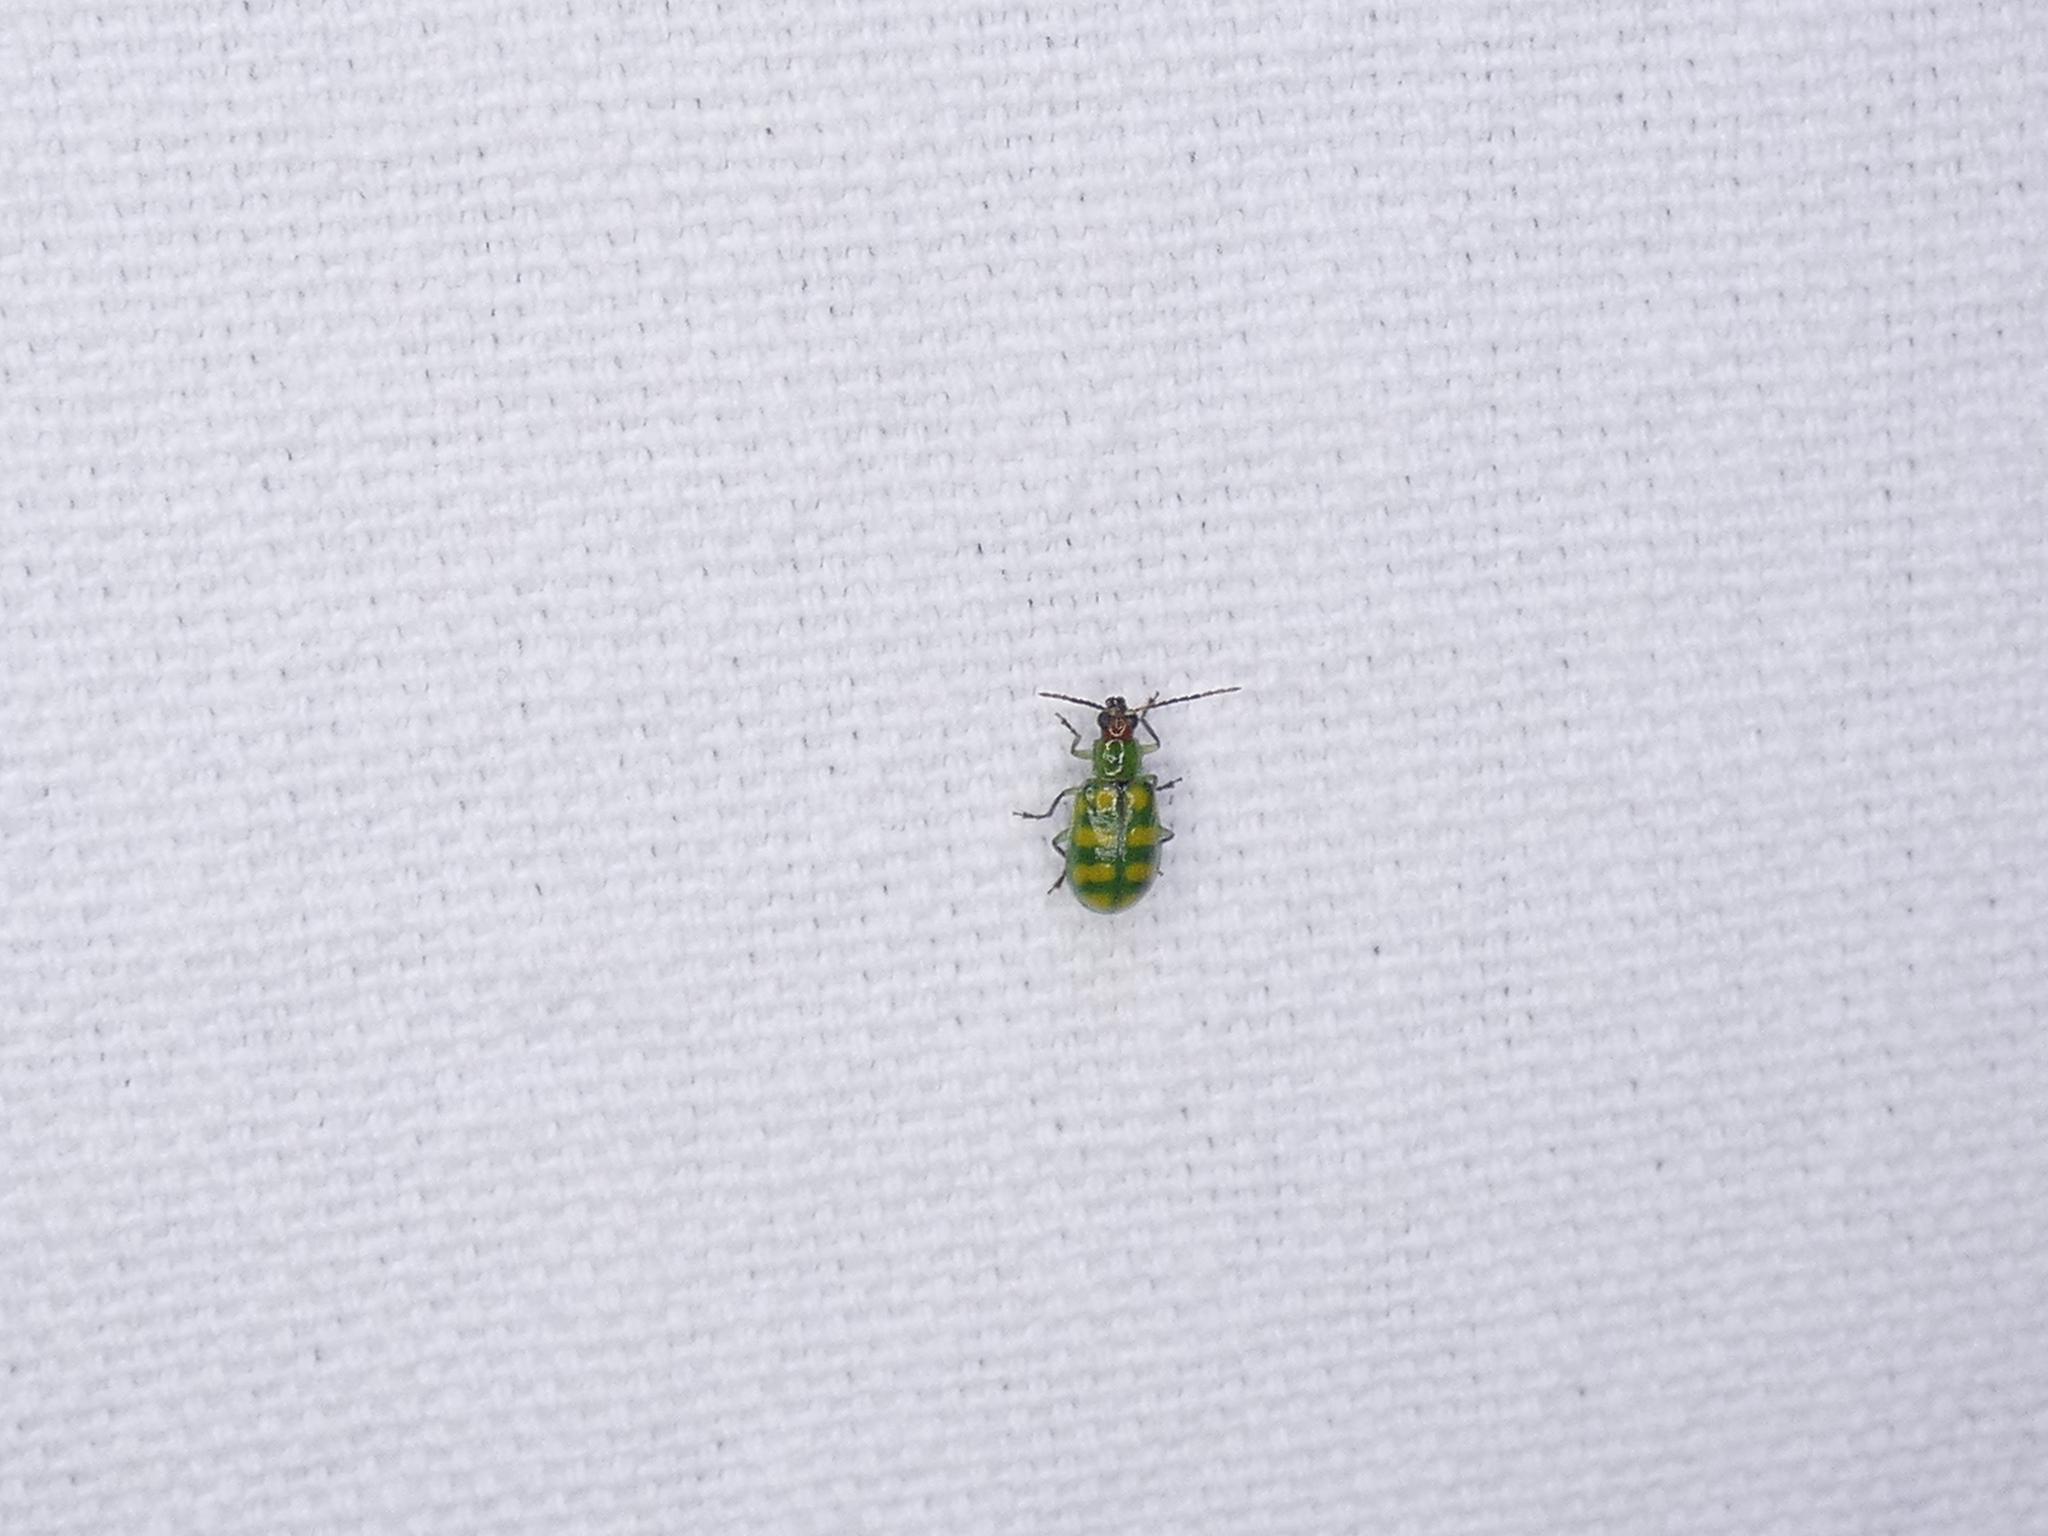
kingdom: Animalia
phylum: Arthropoda
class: Insecta
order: Coleoptera
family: Chrysomelidae
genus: Diabrotica
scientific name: Diabrotica balteata
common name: Leaf beetle
